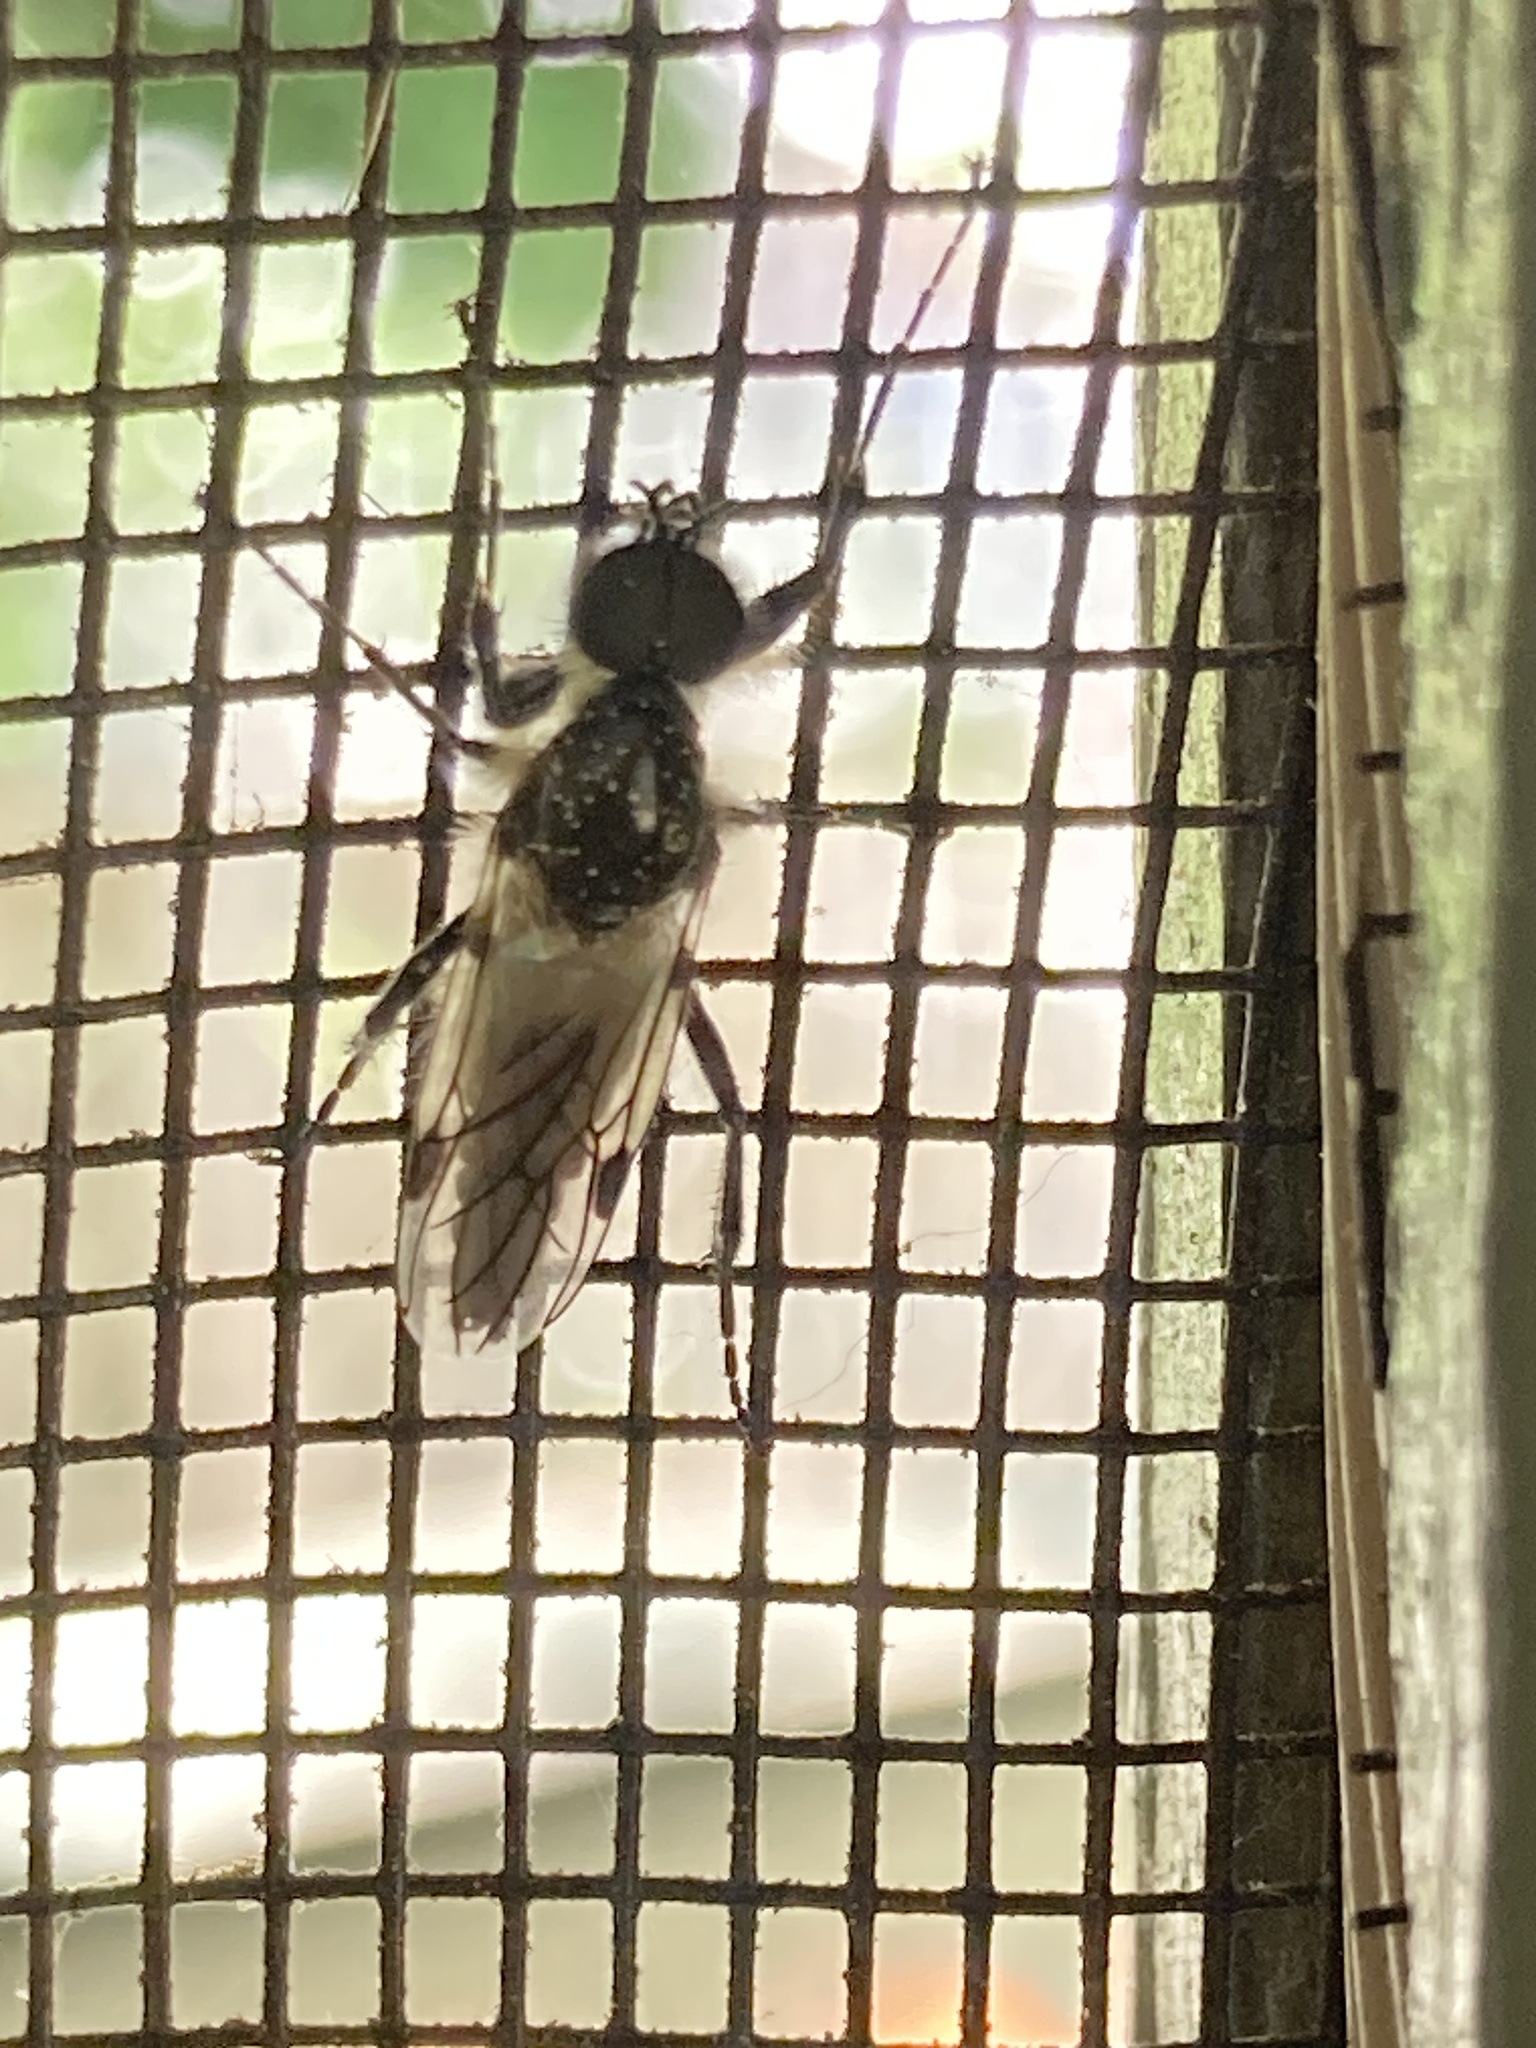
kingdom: Animalia
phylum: Arthropoda
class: Insecta
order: Diptera
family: Bibionidae
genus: Bibio
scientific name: Bibio albipennis
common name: White-winged march fly
